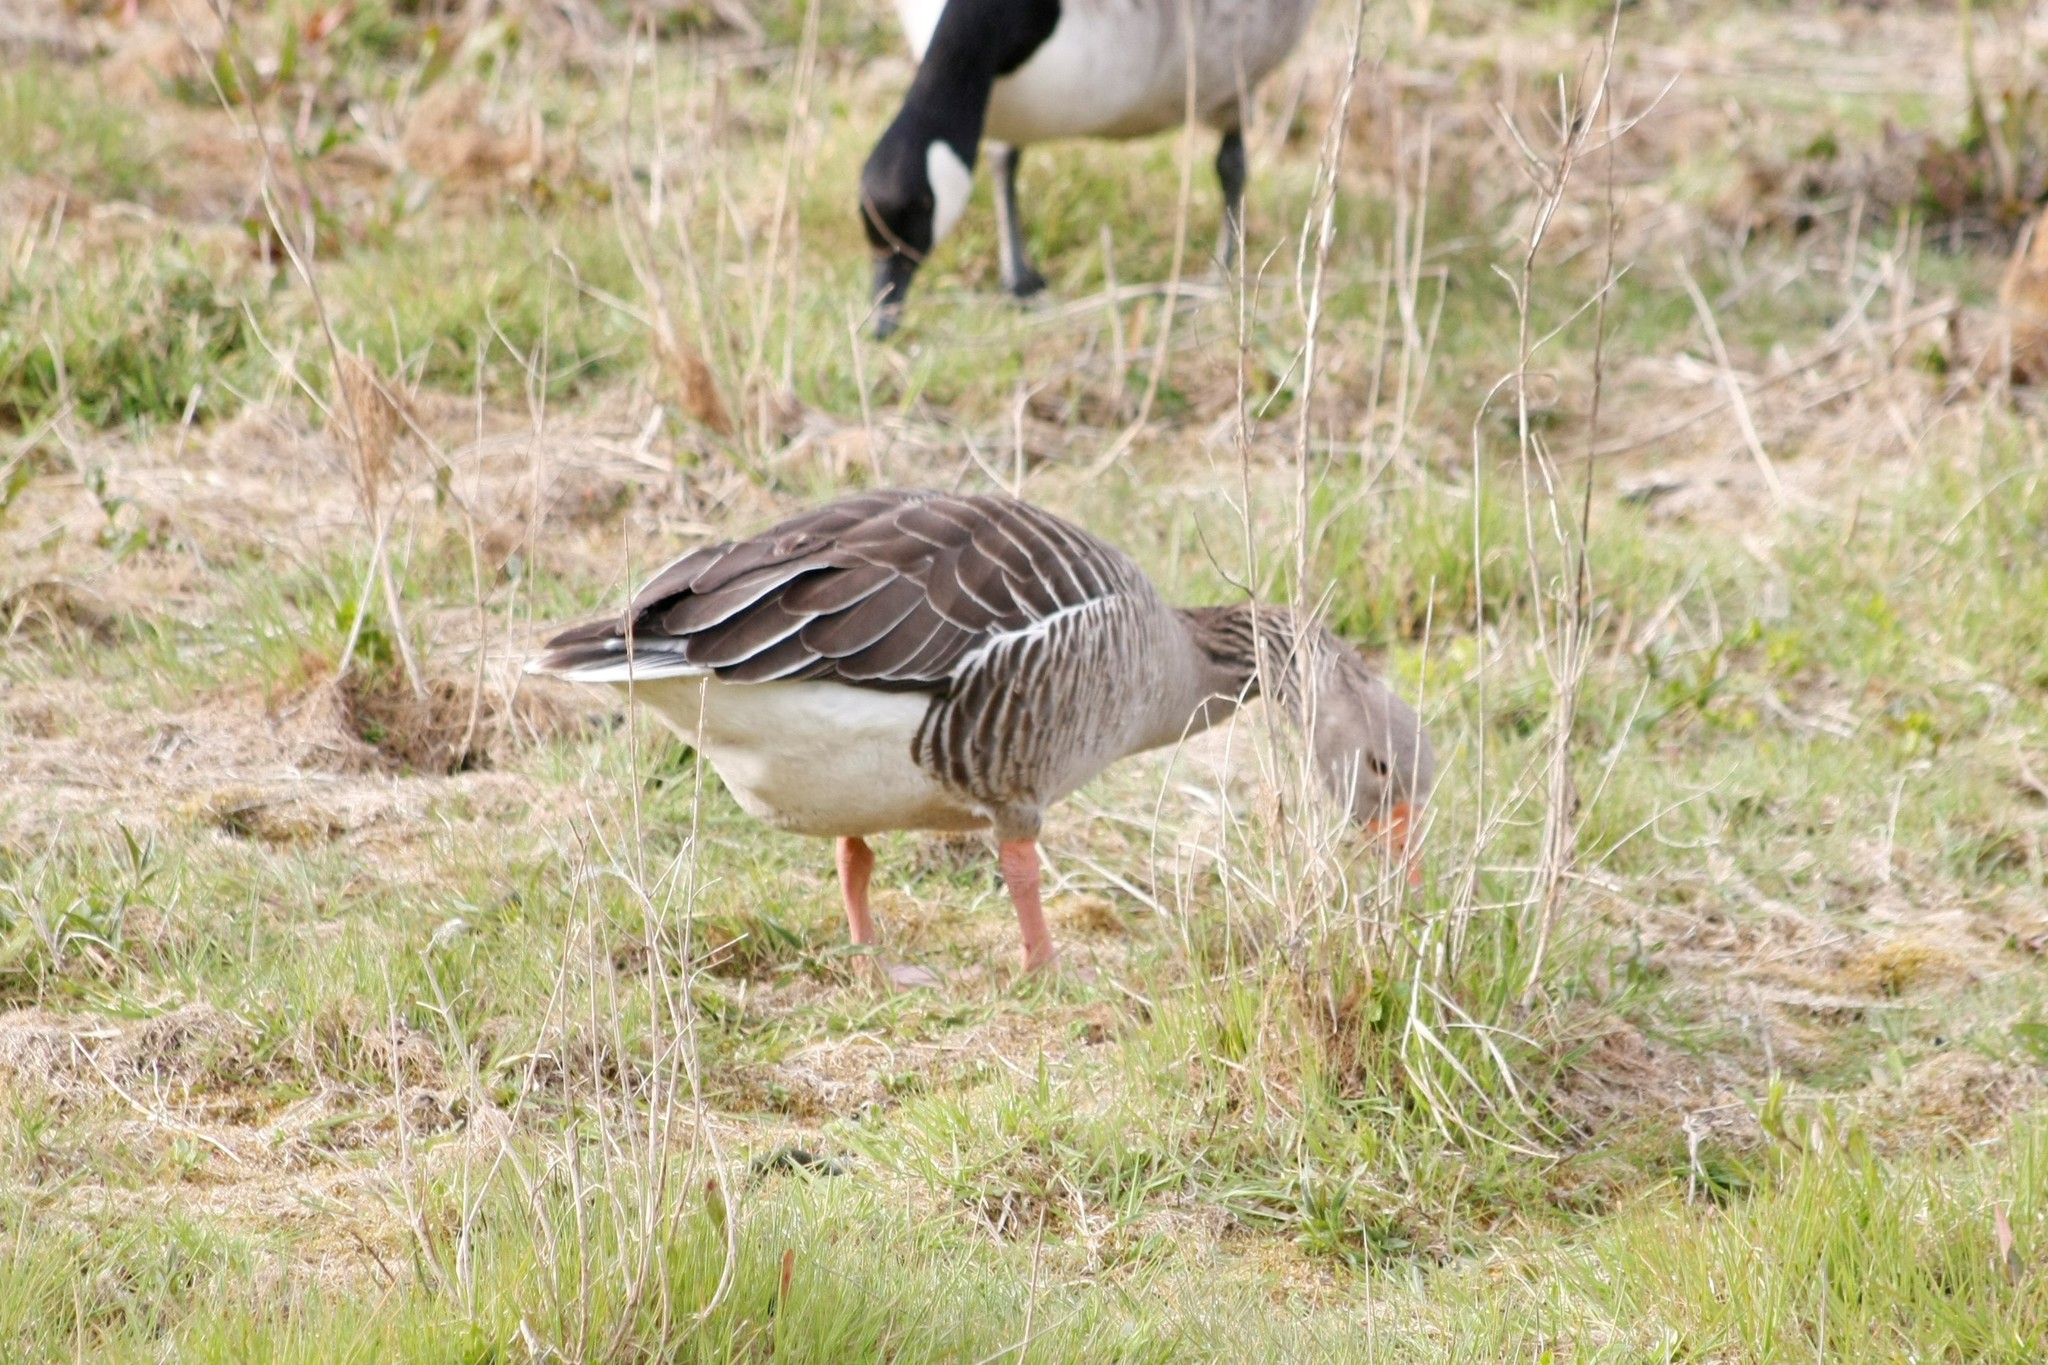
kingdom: Animalia
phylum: Chordata
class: Aves
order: Anseriformes
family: Anatidae
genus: Anser
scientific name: Anser anser
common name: Greylag goose
